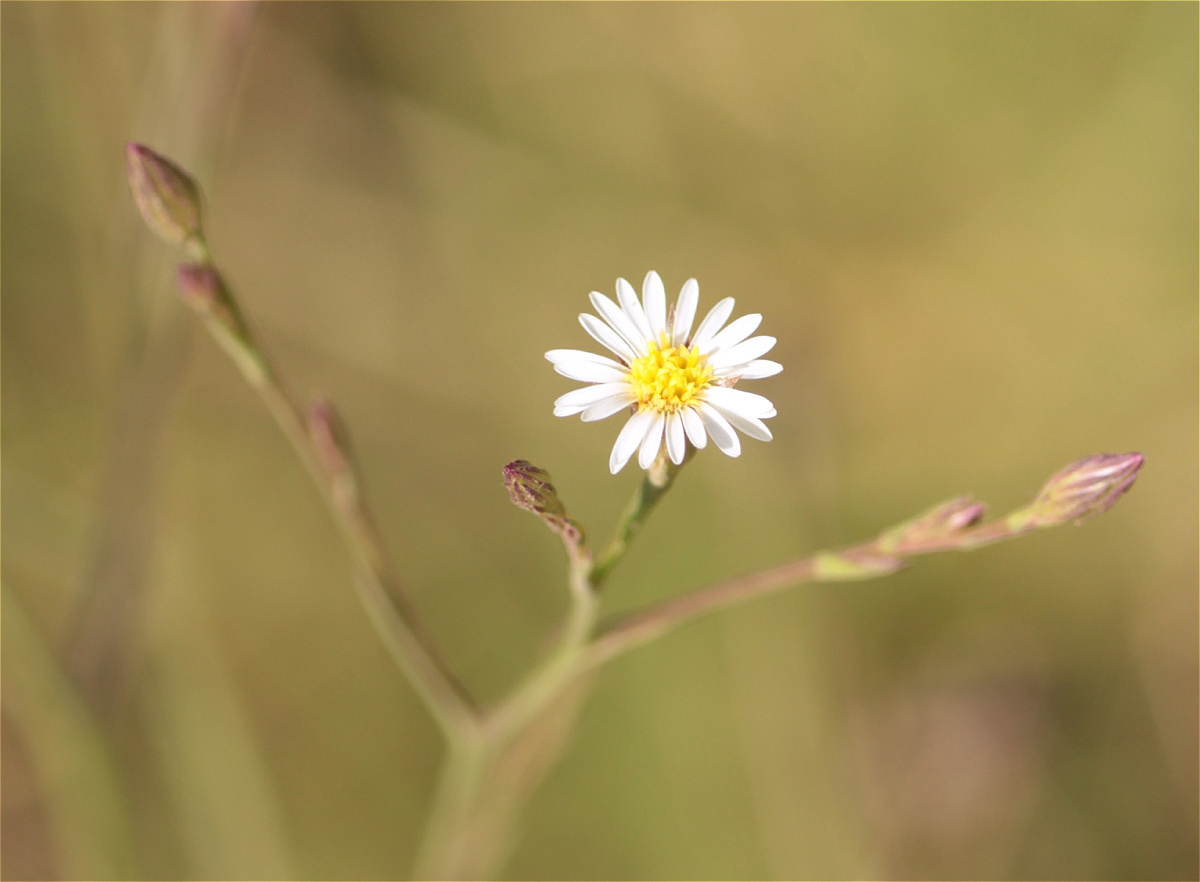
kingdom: Plantae
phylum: Tracheophyta
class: Magnoliopsida
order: Asterales
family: Asteraceae
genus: Symphyotrichum
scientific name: Symphyotrichum subulatum
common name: Annual saltmarsh aster
